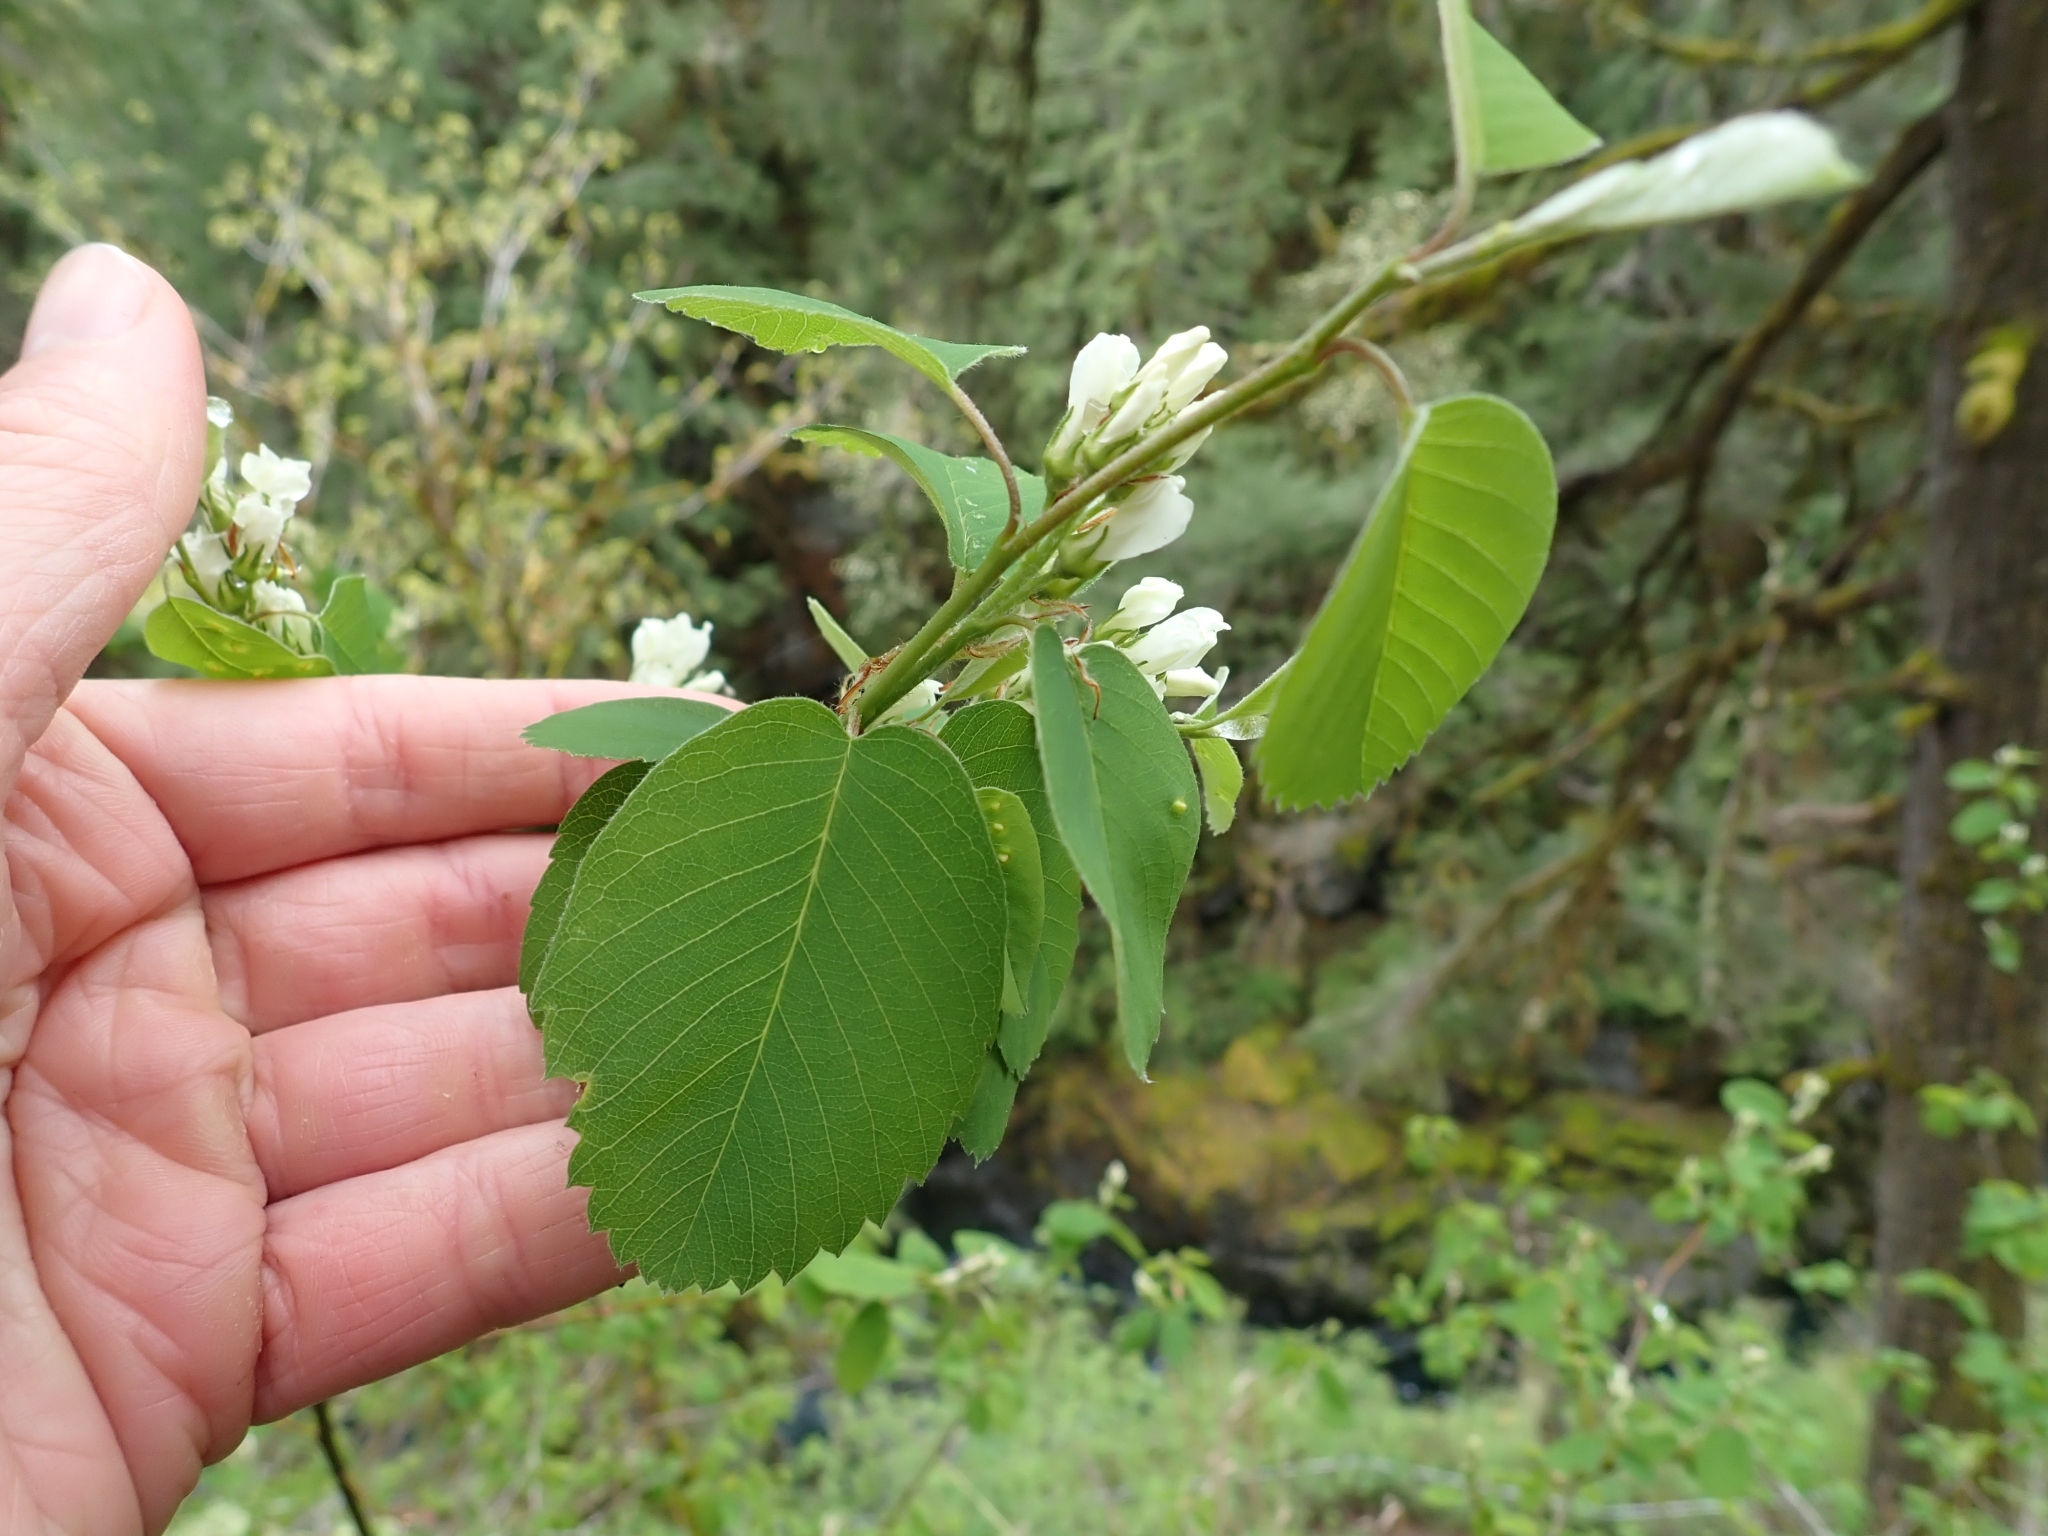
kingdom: Plantae
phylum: Tracheophyta
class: Magnoliopsida
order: Rosales
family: Rosaceae
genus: Amelanchier
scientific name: Amelanchier alnifolia
